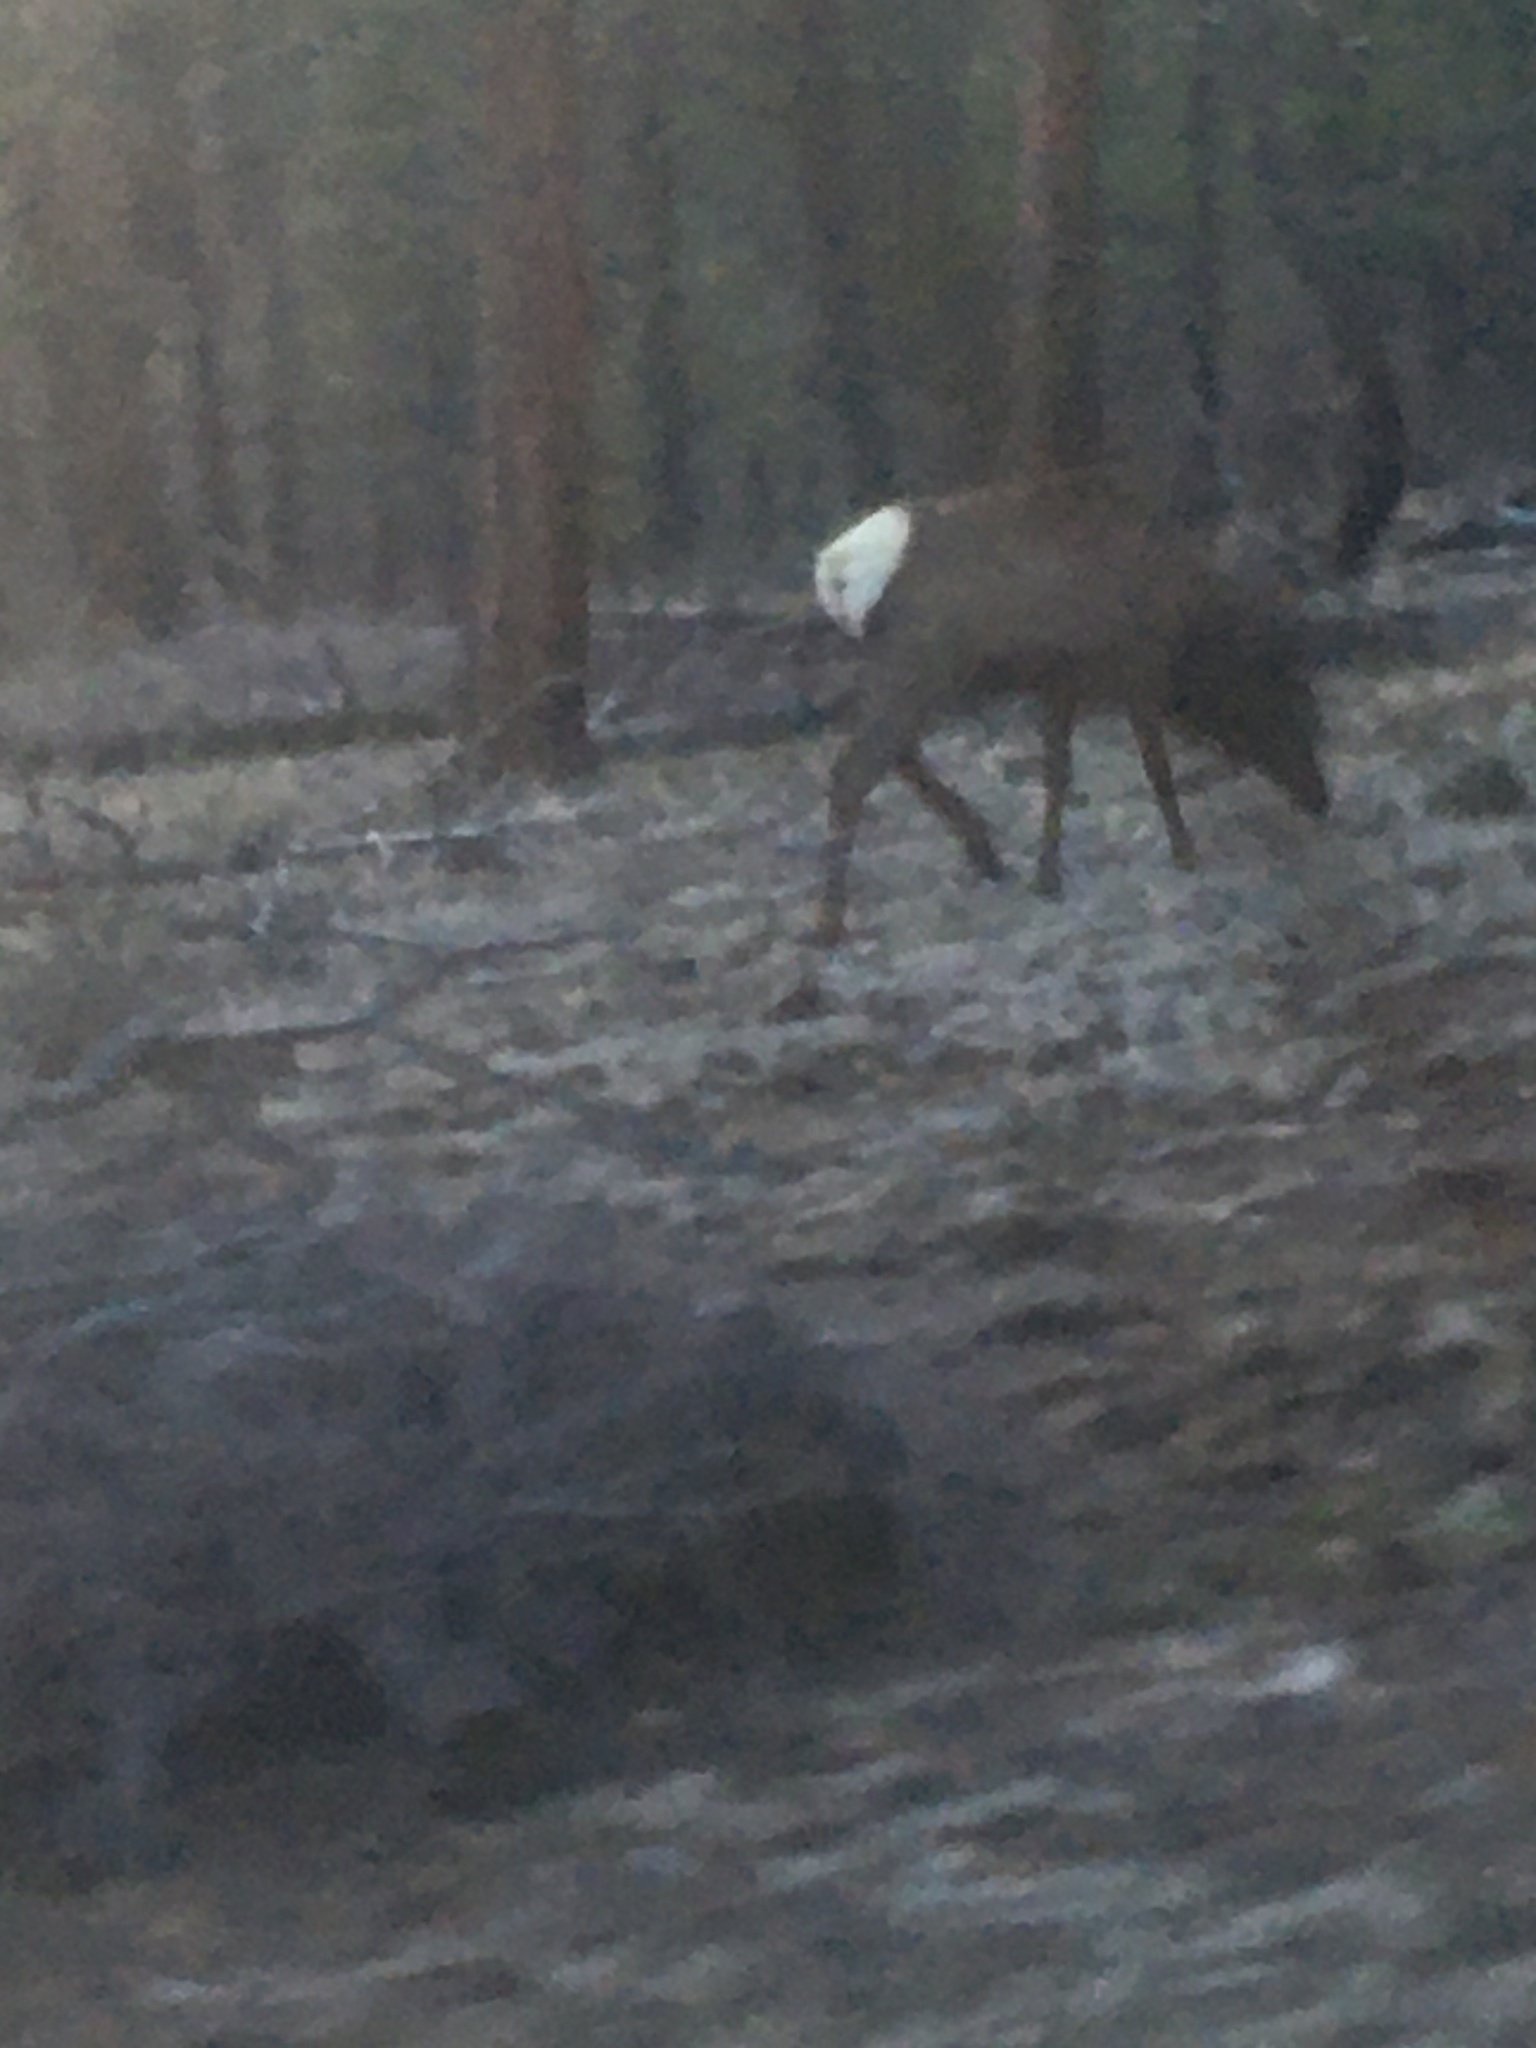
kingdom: Animalia
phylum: Chordata
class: Mammalia
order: Artiodactyla
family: Cervidae
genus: Cervus
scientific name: Cervus elaphus
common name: Red deer
